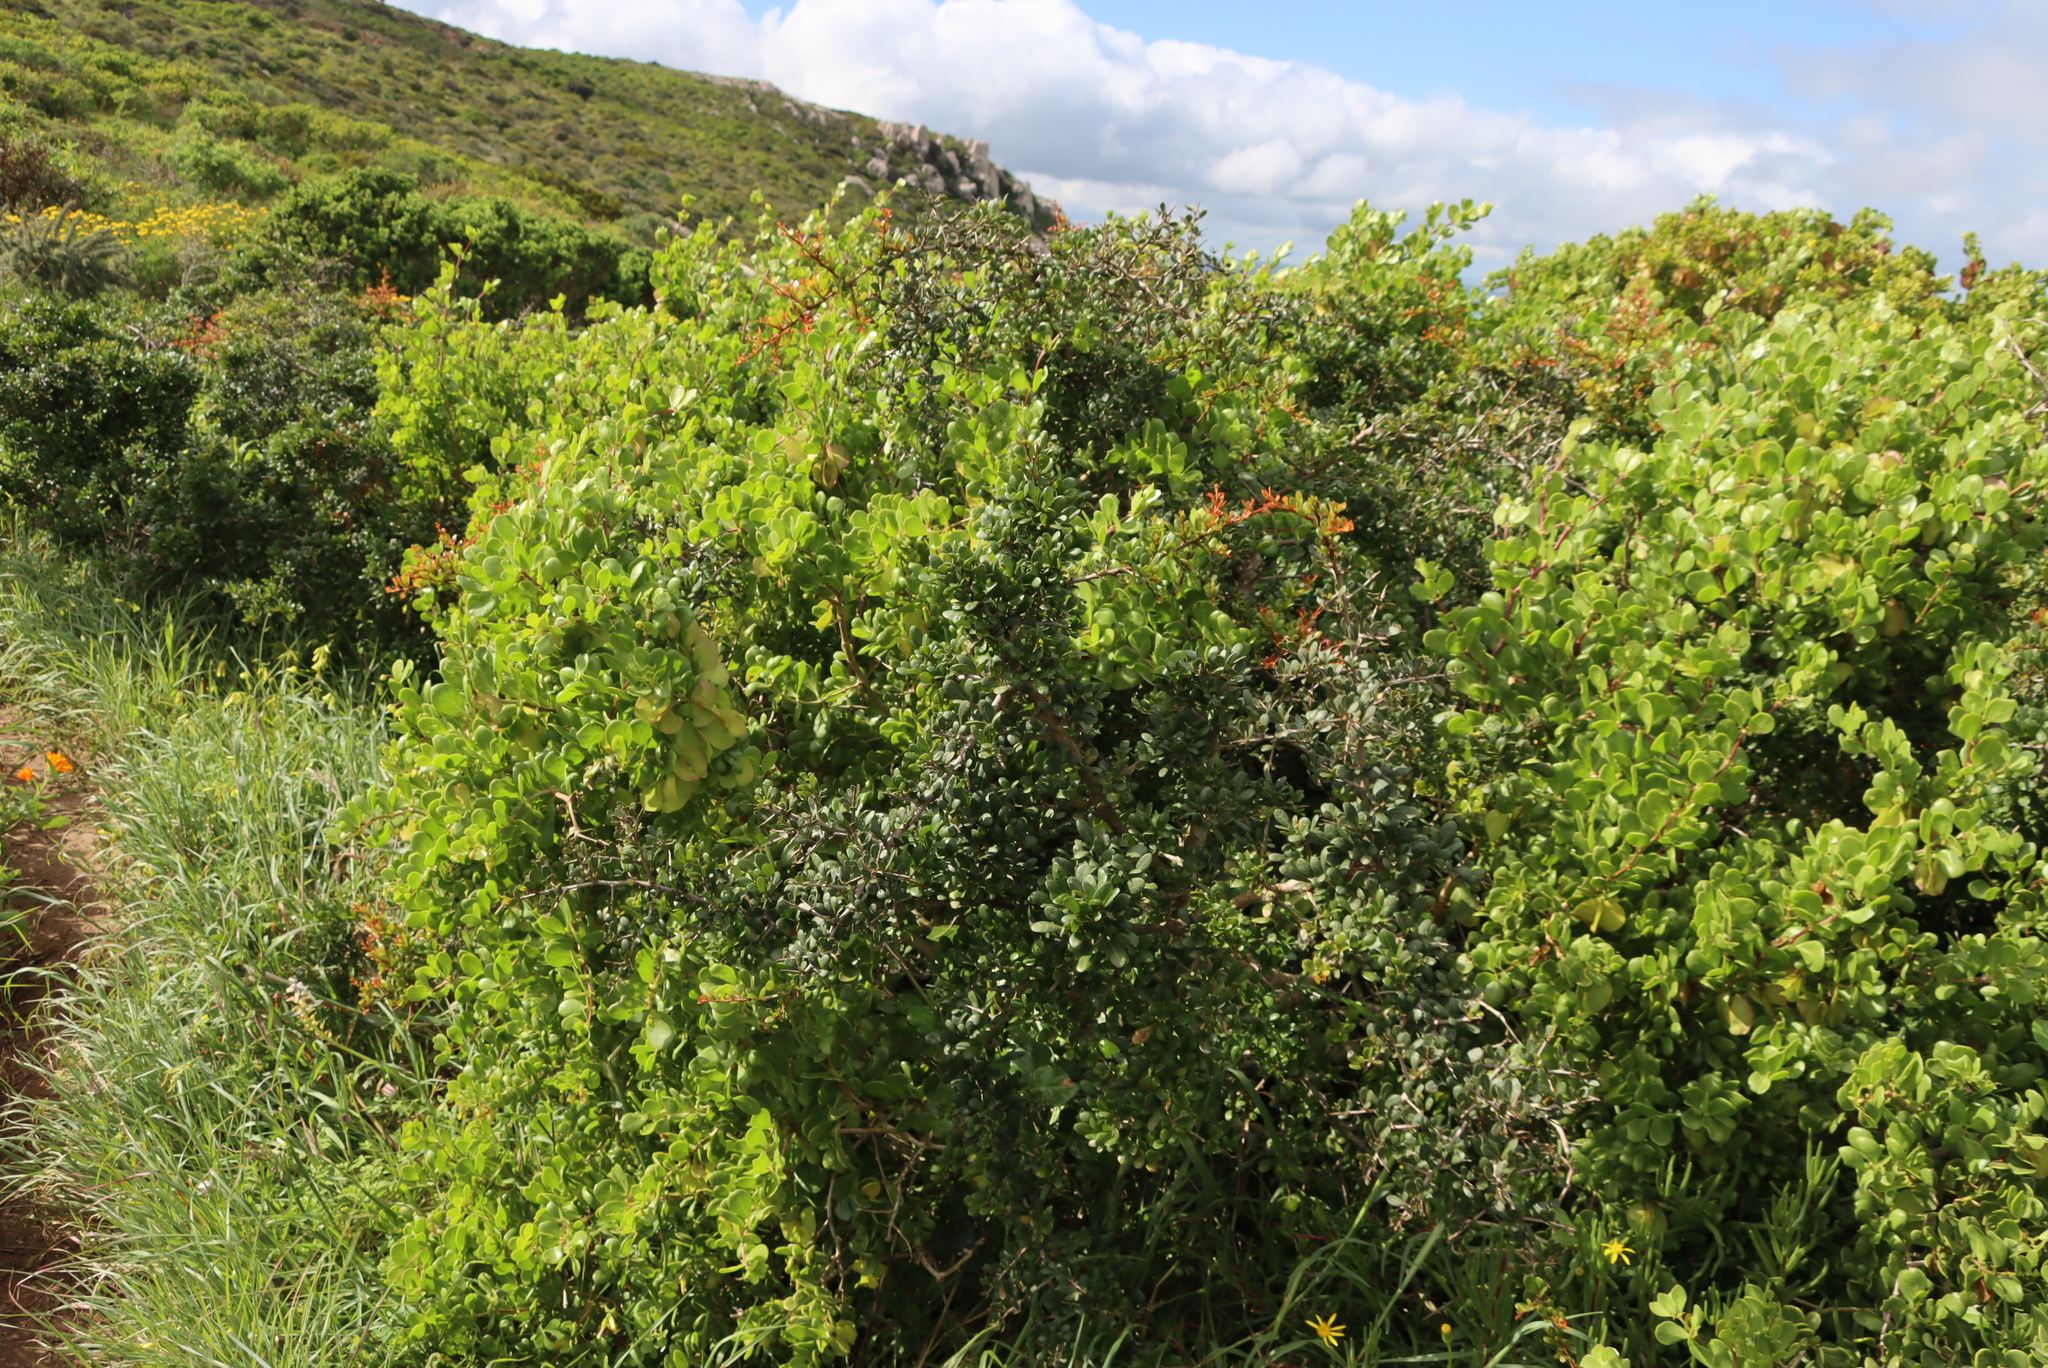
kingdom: Plantae
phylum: Tracheophyta
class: Magnoliopsida
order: Sapindales
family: Anacardiaceae
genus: Searsia
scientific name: Searsia pterota
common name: Winged currant
